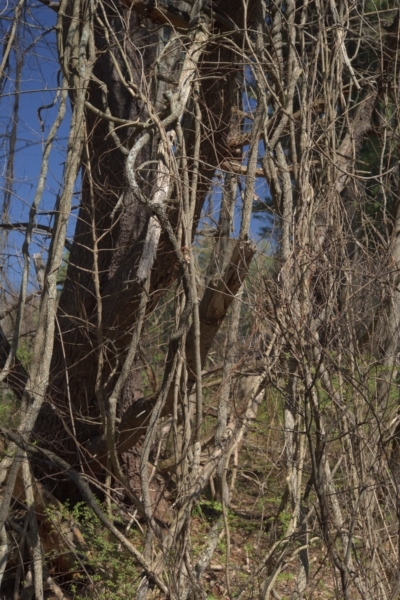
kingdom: Plantae
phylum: Tracheophyta
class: Magnoliopsida
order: Celastrales
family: Celastraceae
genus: Celastrus
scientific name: Celastrus orbiculatus
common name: Oriental bittersweet
